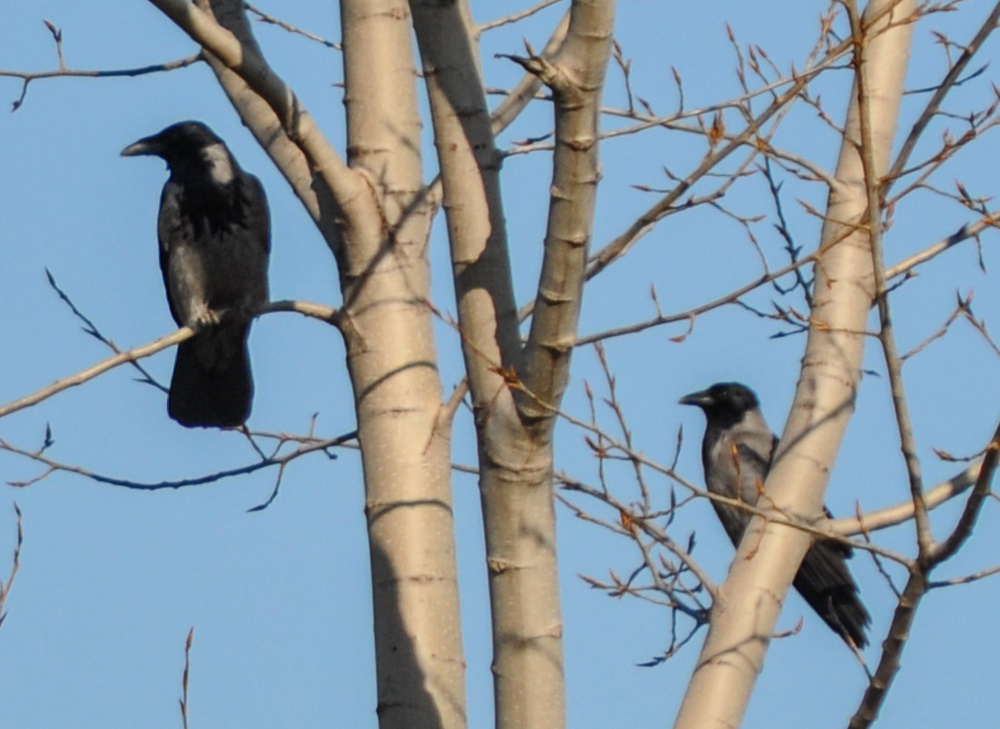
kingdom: Animalia
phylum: Chordata
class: Aves
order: Passeriformes
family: Corvidae
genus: Corvus
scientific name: Corvus cornix
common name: Hooded crow
